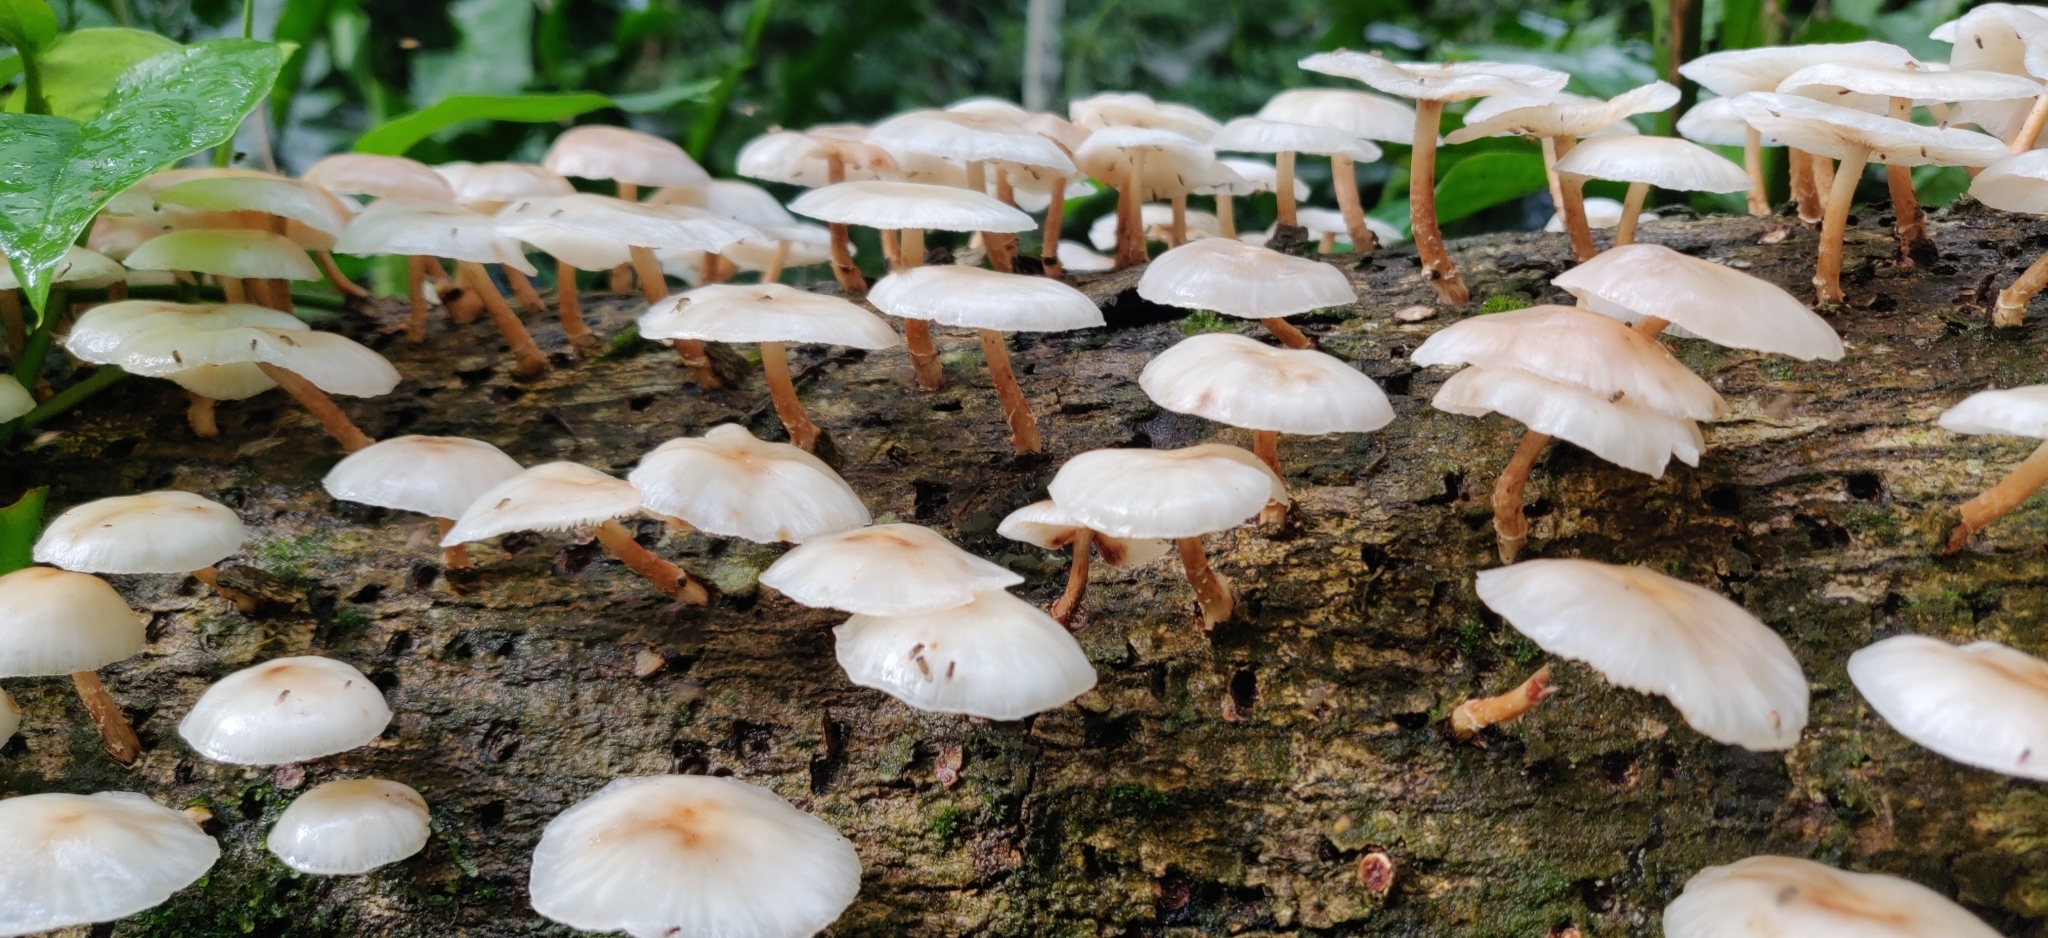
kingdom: Fungi
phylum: Basidiomycota
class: Agaricomycetes
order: Agaricales
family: Omphalotaceae
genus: Lentinula
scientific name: Lentinula raphanica
